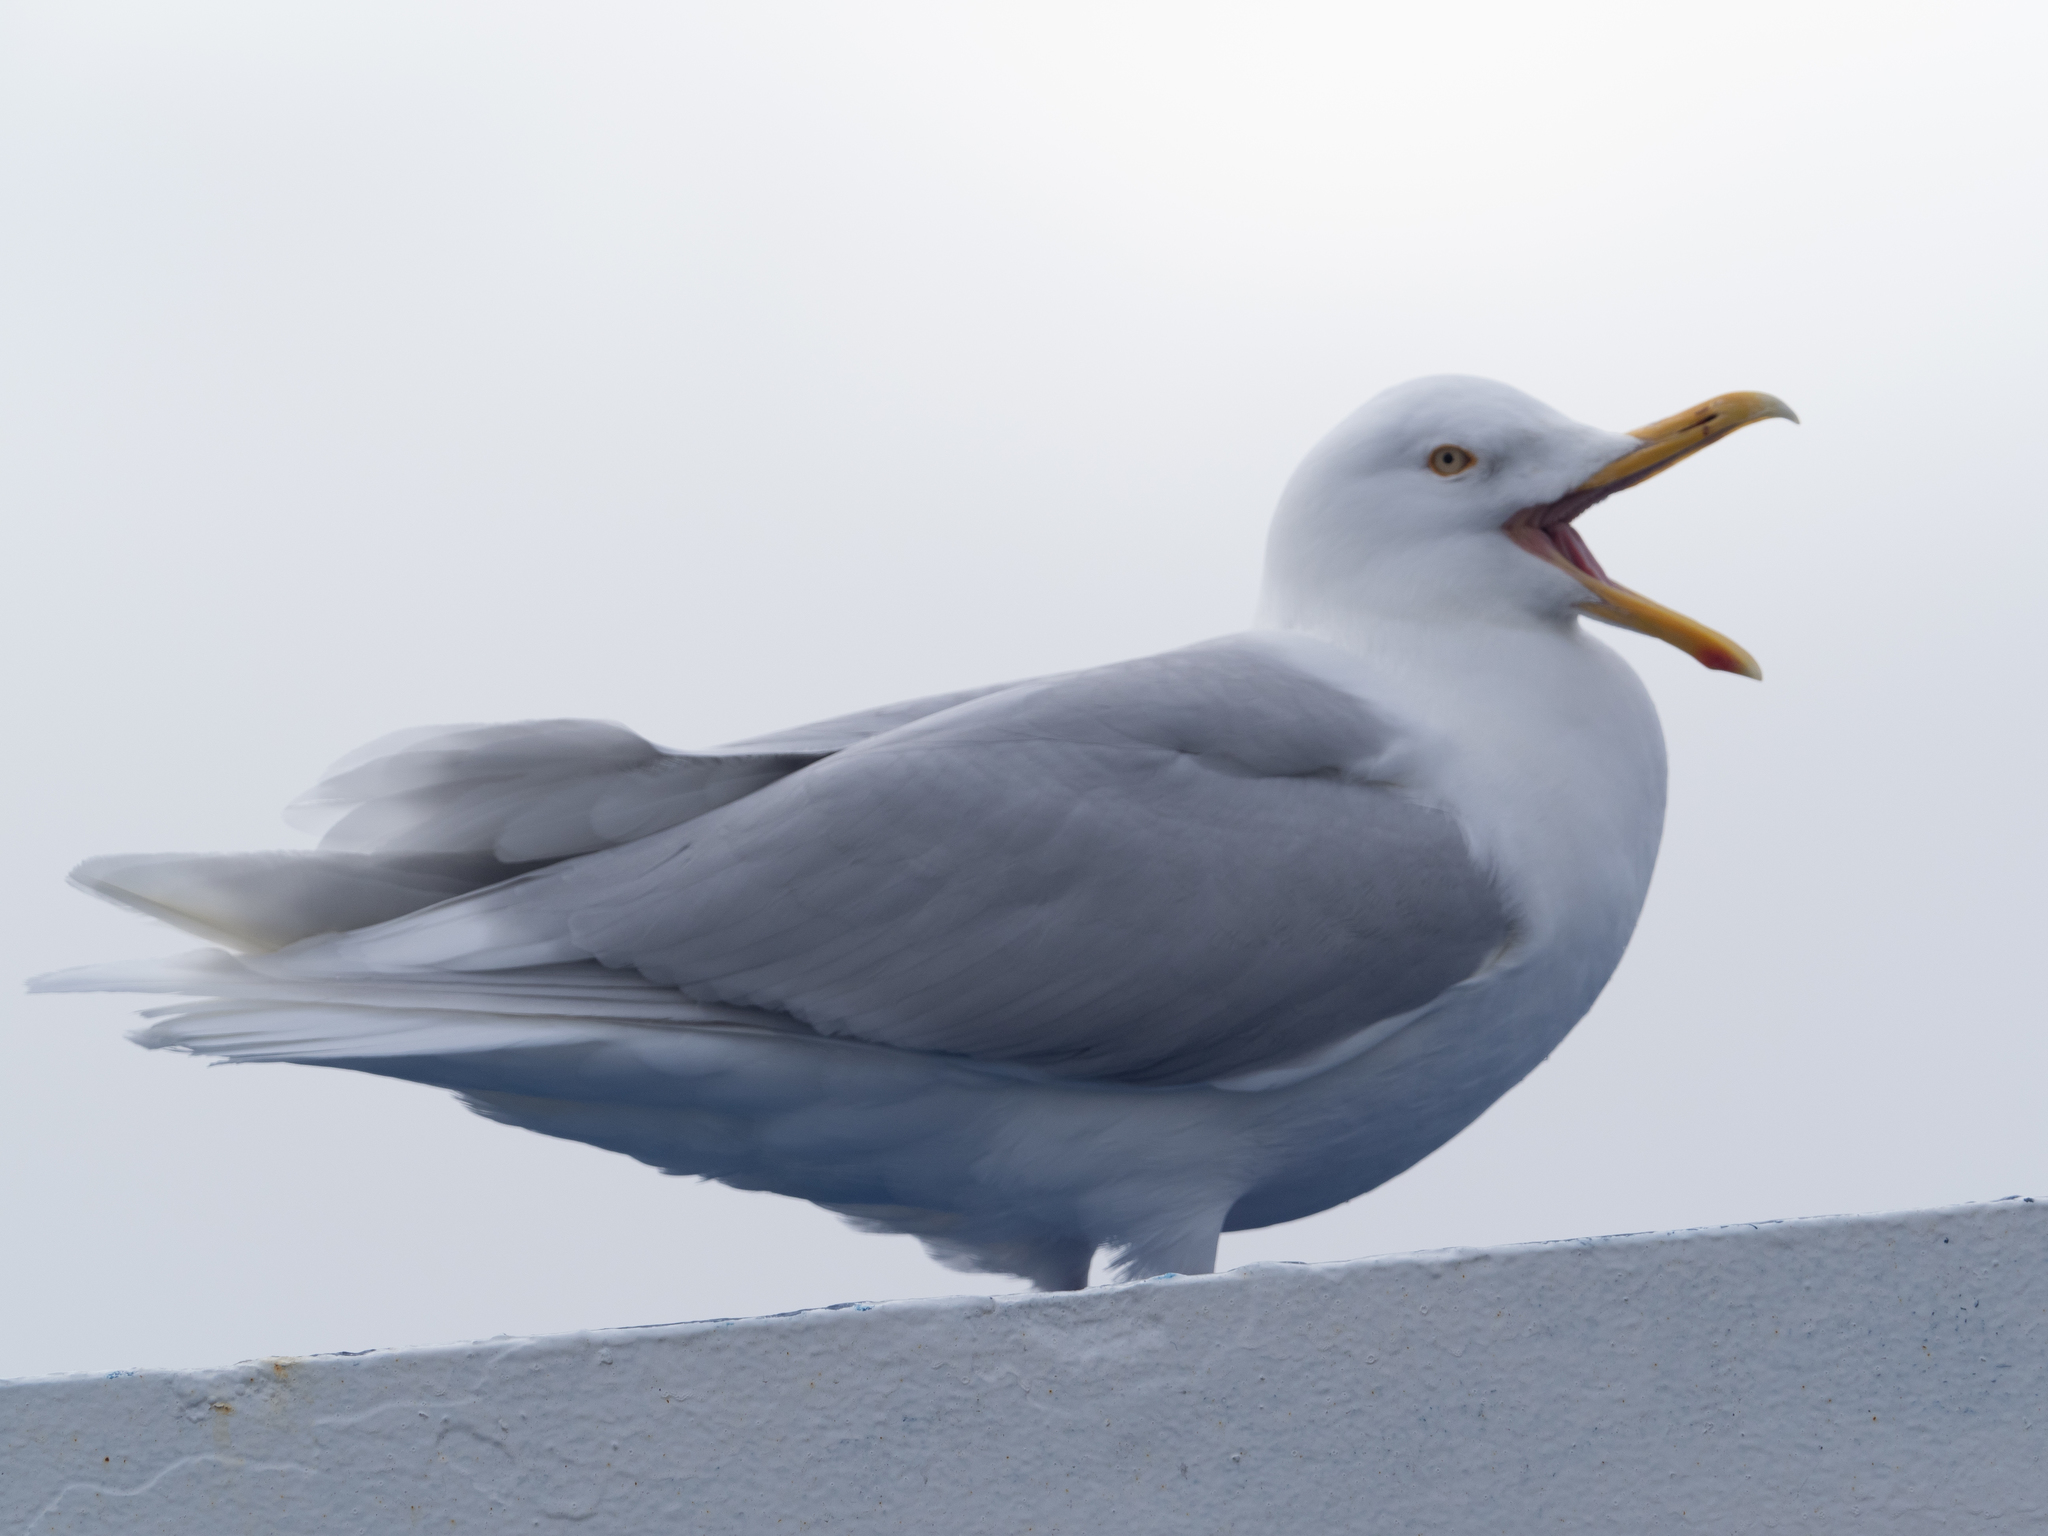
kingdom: Animalia
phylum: Chordata
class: Aves
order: Charadriiformes
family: Laridae
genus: Larus
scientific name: Larus hyperboreus
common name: Glaucous gull
